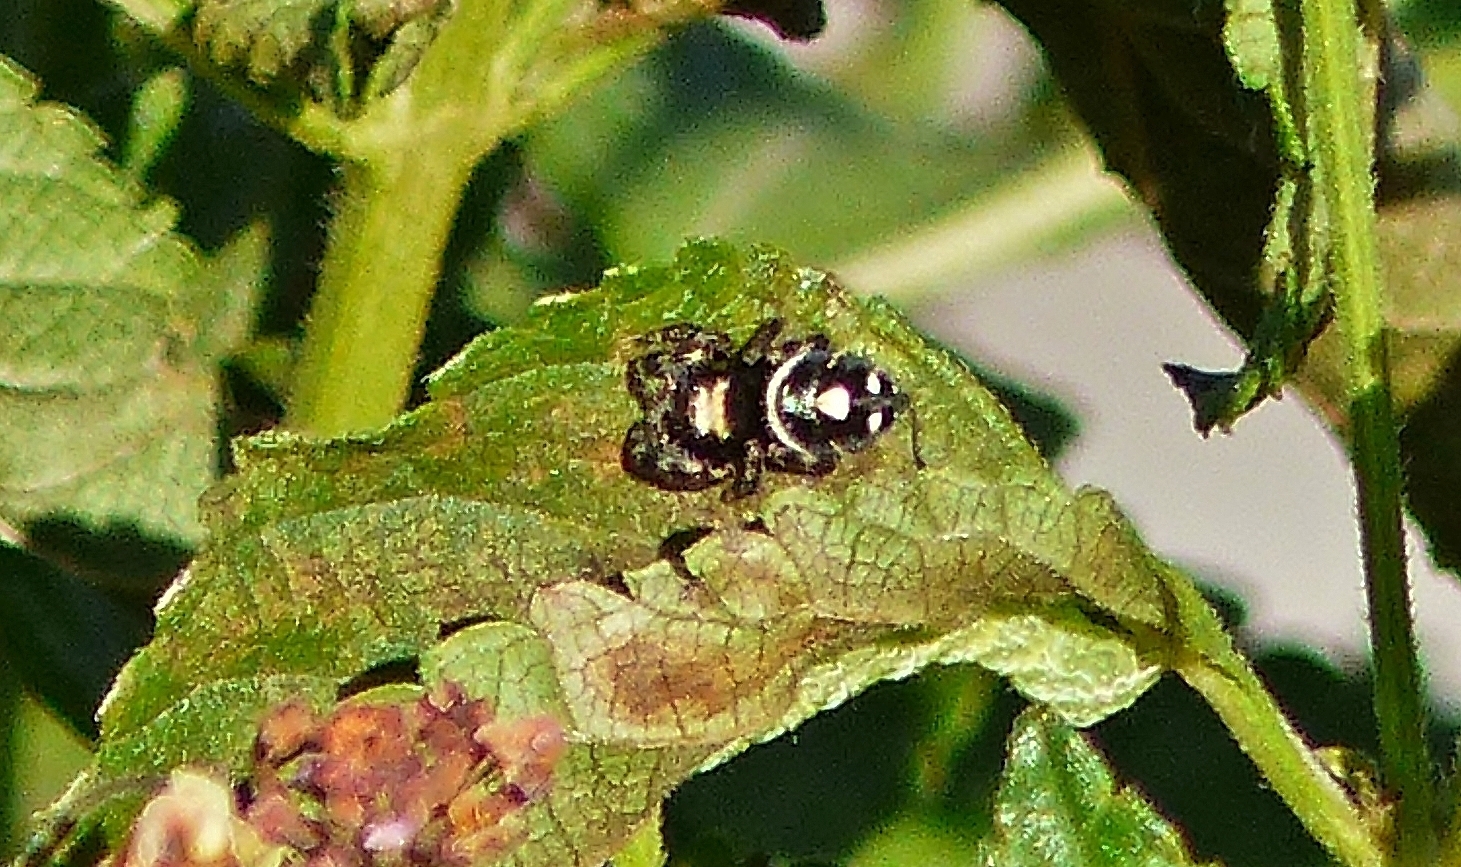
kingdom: Animalia
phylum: Arthropoda
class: Arachnida
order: Araneae
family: Salticidae
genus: Phidippus
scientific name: Phidippus audax
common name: Bold jumper
